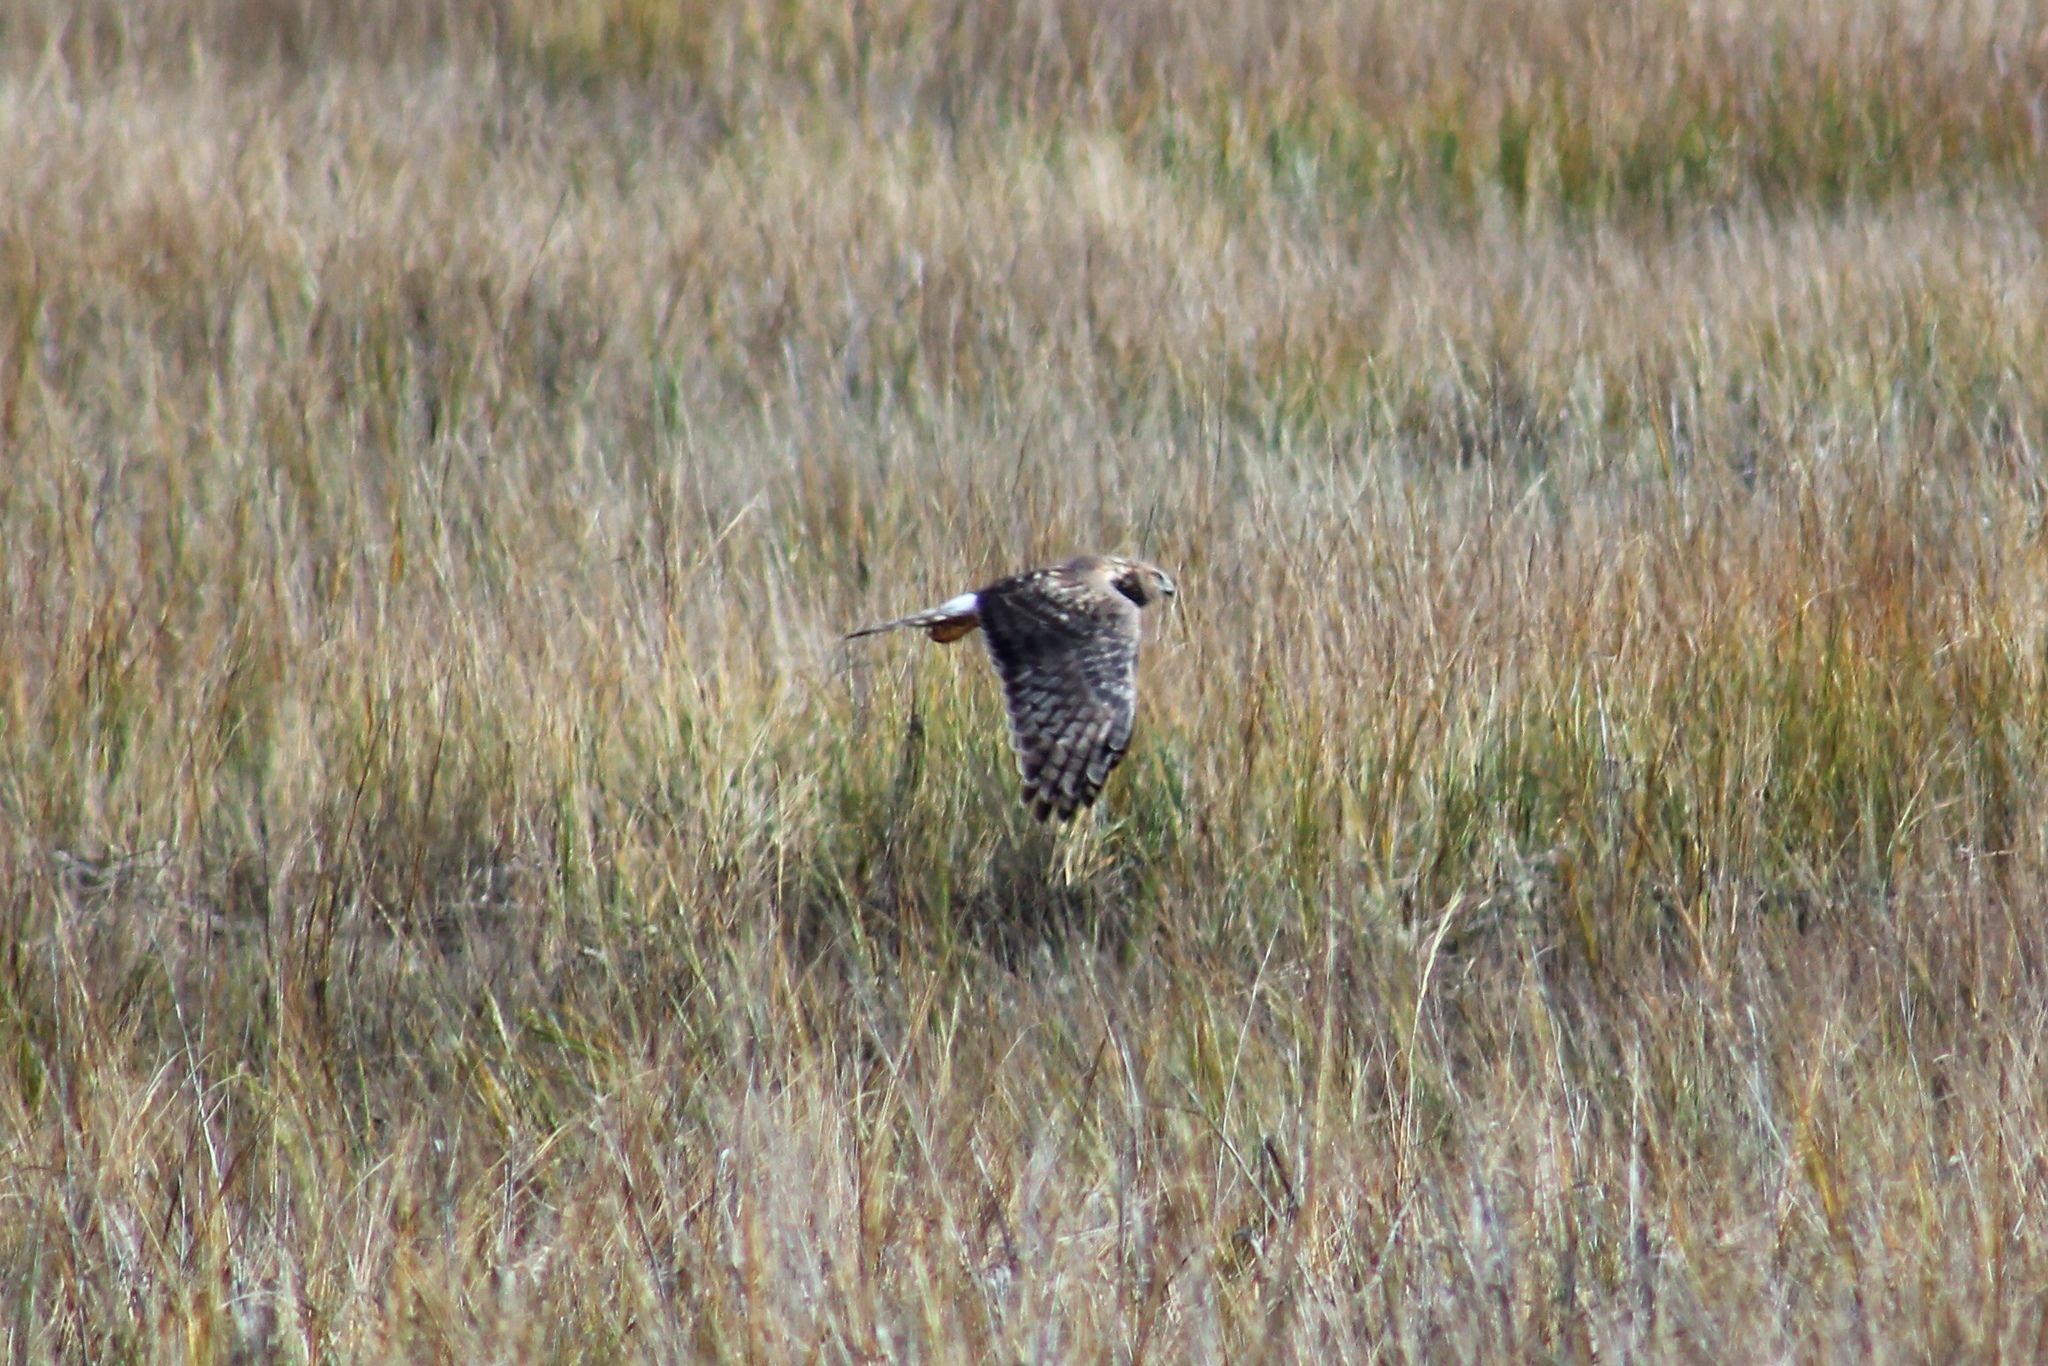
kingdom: Animalia
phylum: Chordata
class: Aves
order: Accipitriformes
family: Accipitridae
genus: Circus
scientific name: Circus cyaneus
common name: Hen harrier
